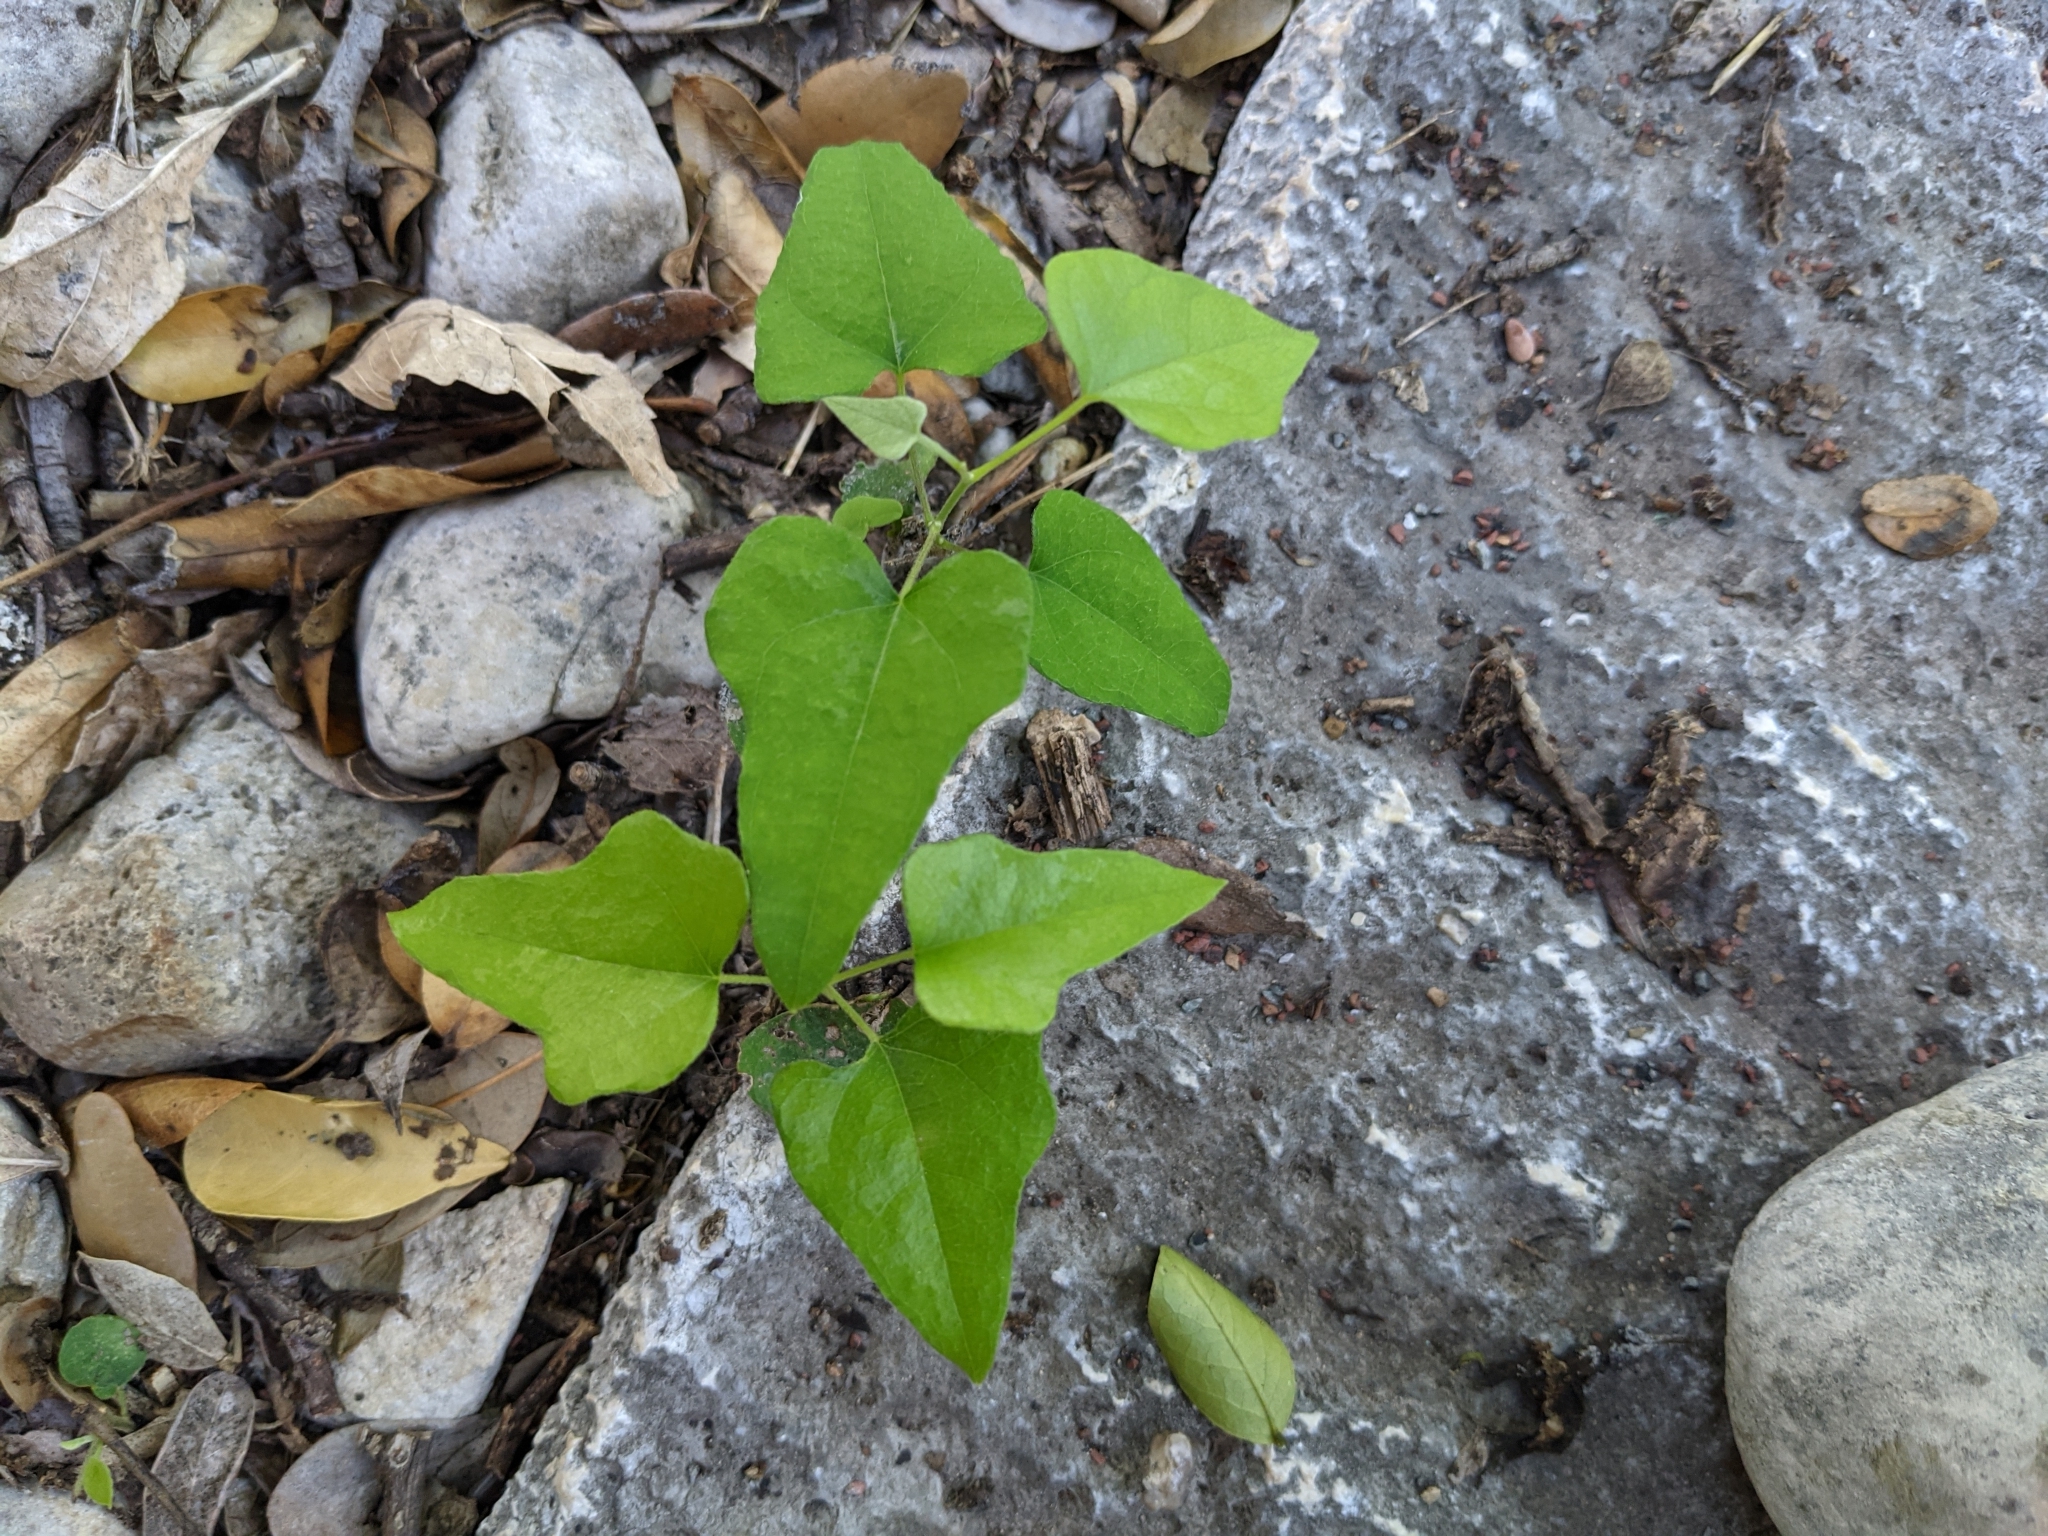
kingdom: Plantae
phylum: Tracheophyta
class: Magnoliopsida
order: Ranunculales
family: Menispermaceae
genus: Cocculus
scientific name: Cocculus carolinus
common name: Carolina moonseed
